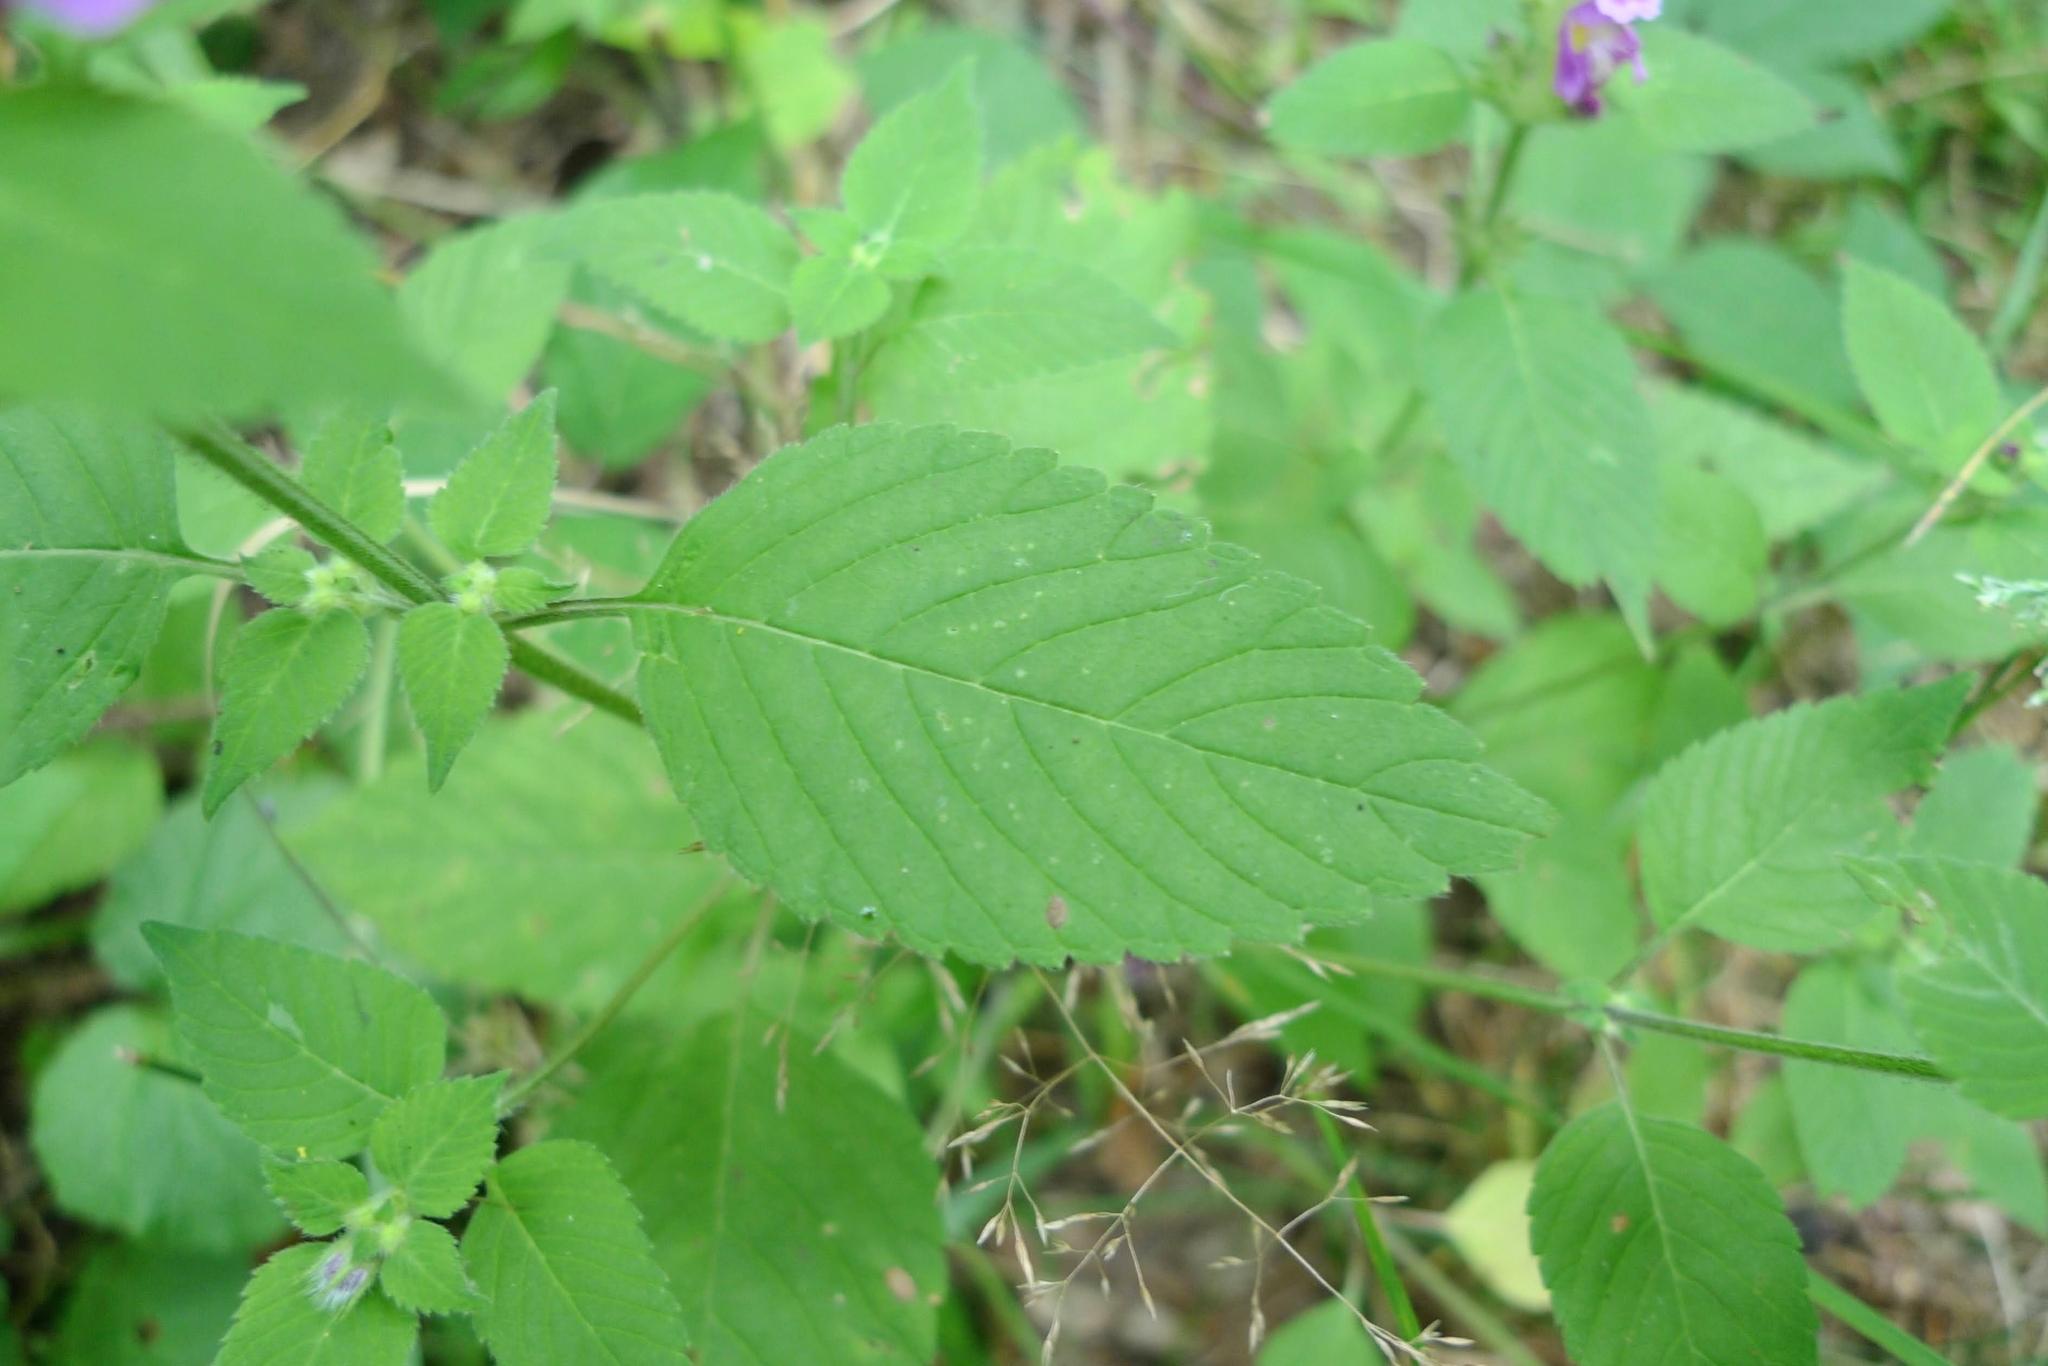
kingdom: Plantae
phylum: Tracheophyta
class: Magnoliopsida
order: Lamiales
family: Lamiaceae
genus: Galeopsis
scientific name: Galeopsis pubescens
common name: Downy hemp-nettle
